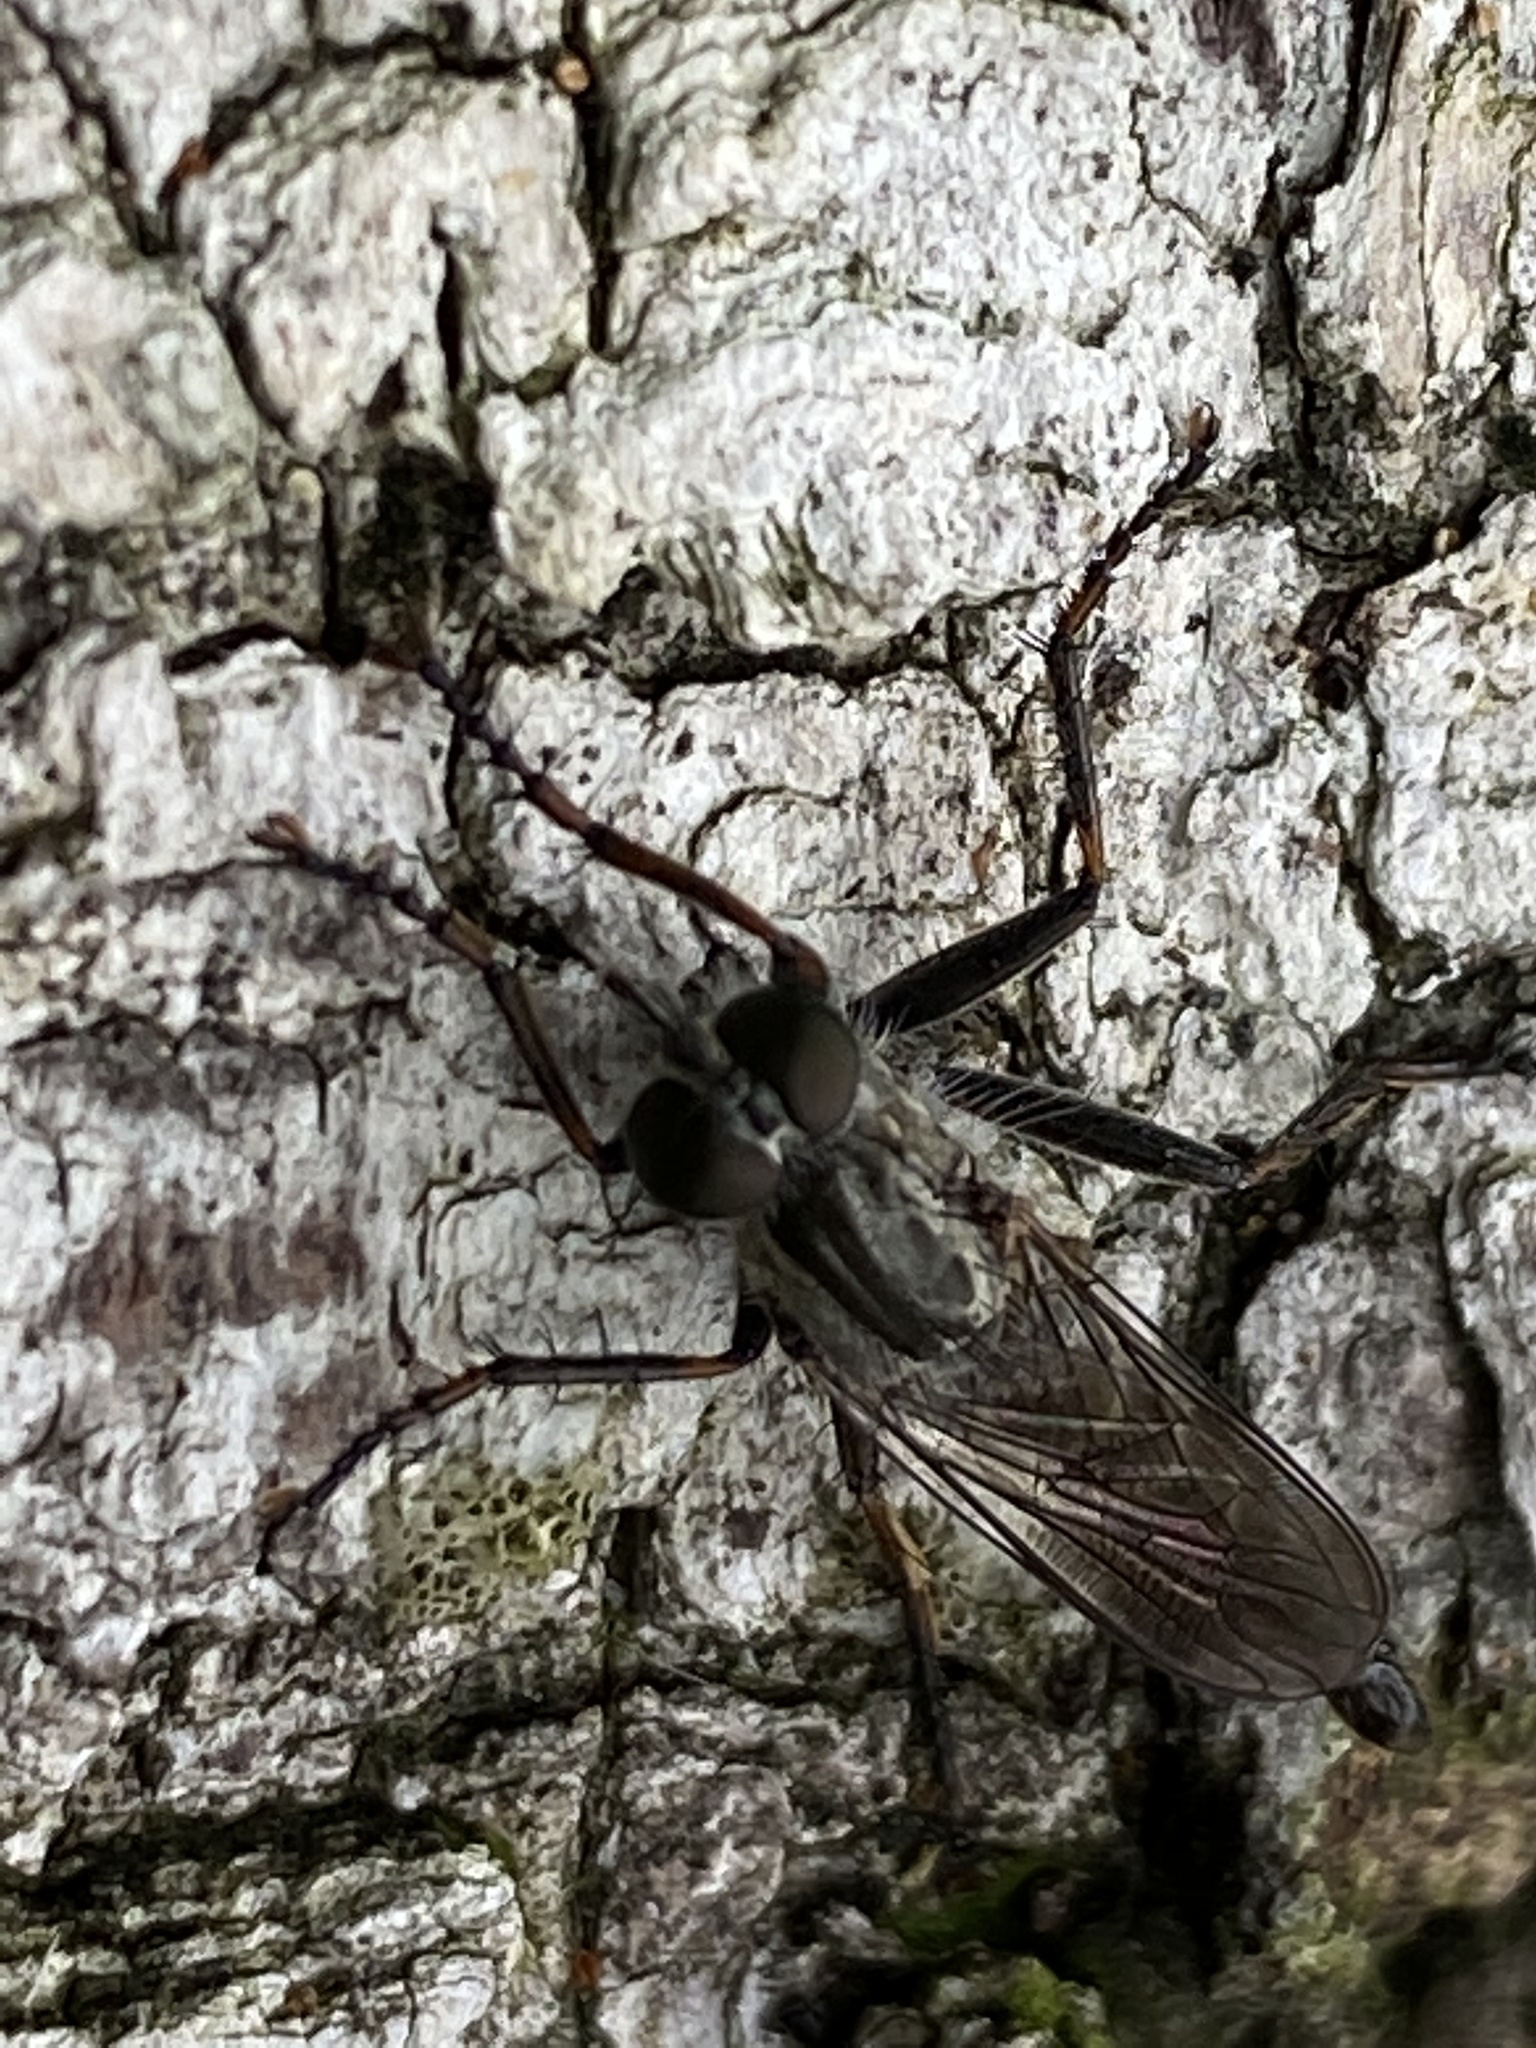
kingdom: Animalia
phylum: Arthropoda
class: Insecta
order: Diptera
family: Asilidae
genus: Machimus
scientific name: Machimus atricapillus
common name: Kite-tailed robberfly
